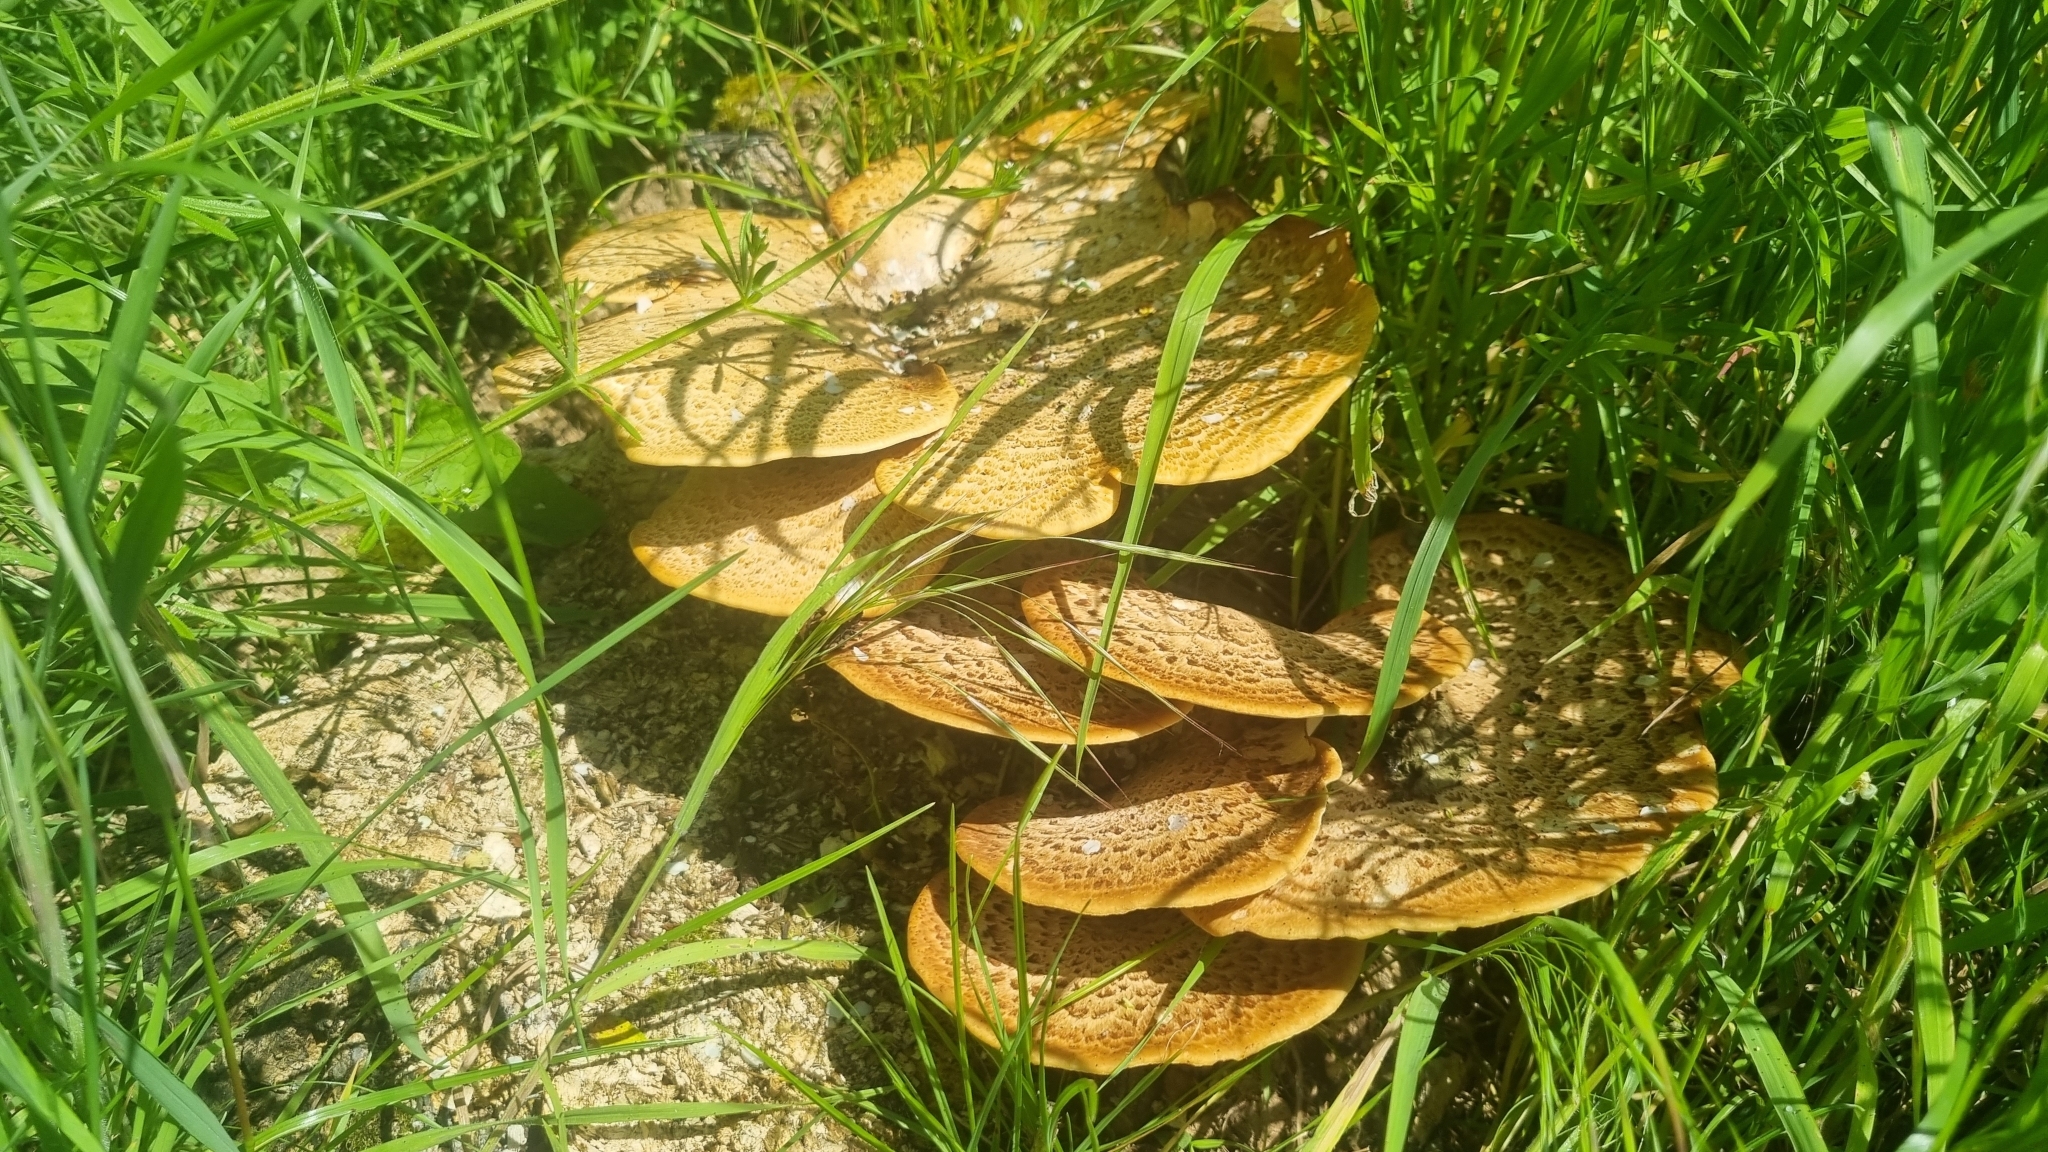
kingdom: Fungi
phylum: Basidiomycota
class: Agaricomycetes
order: Polyporales
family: Polyporaceae
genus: Cerioporus
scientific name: Cerioporus squamosus
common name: Dryad's saddle
